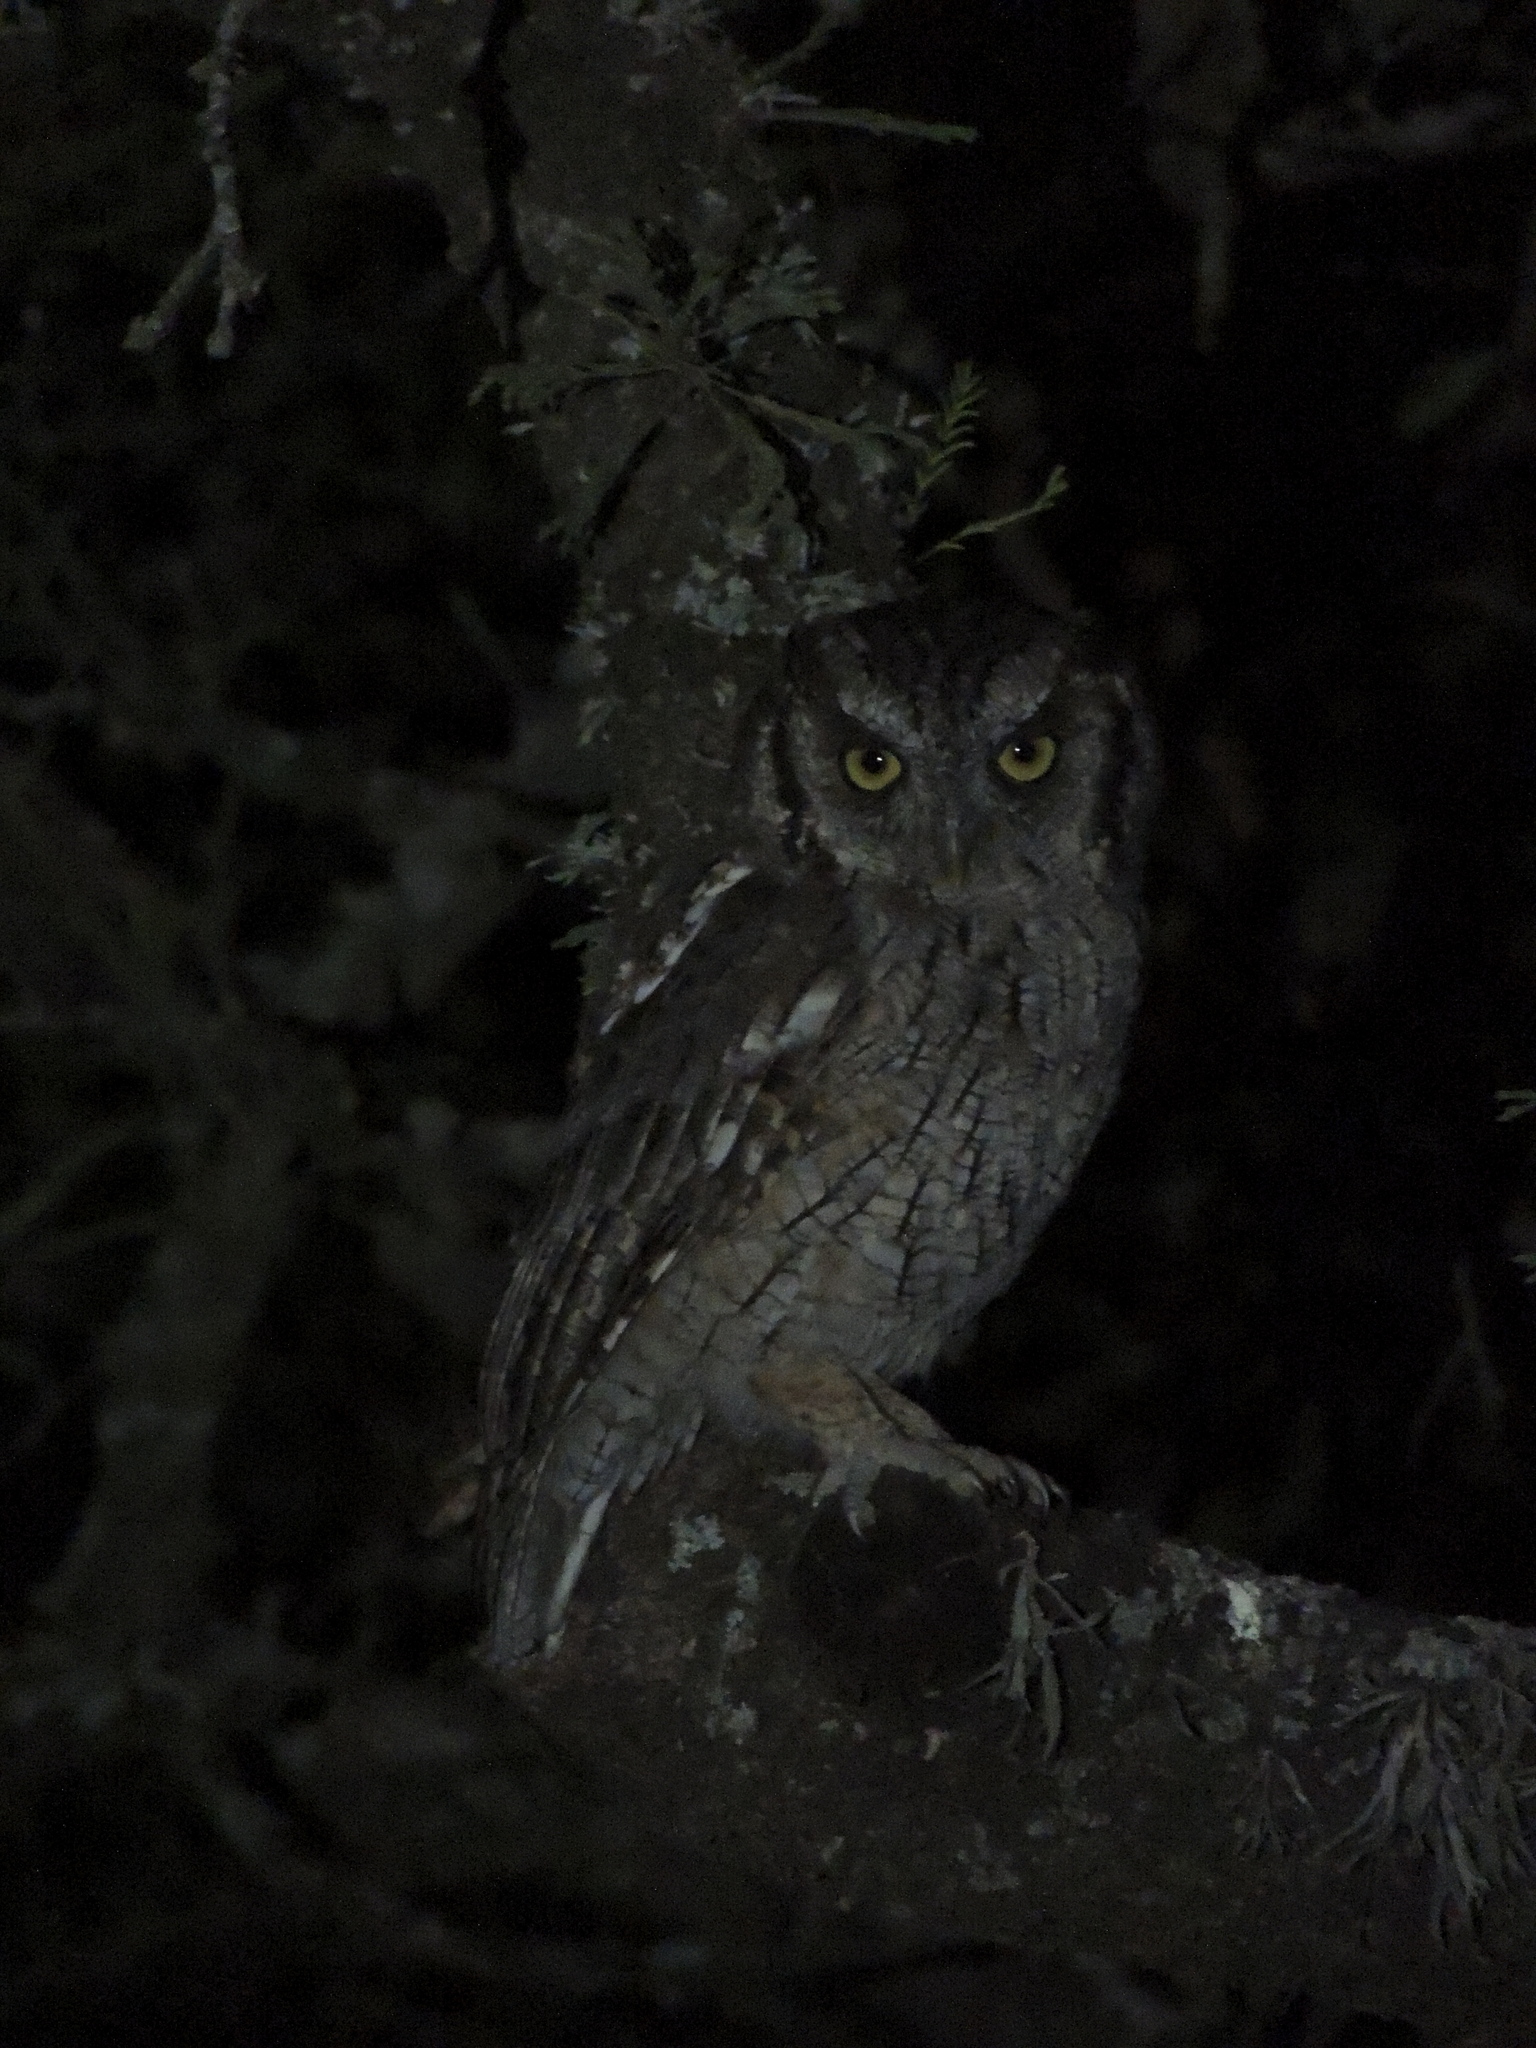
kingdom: Animalia
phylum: Chordata
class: Aves
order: Strigiformes
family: Strigidae
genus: Megascops
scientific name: Megascops choliba
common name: Tropical screech-owl
